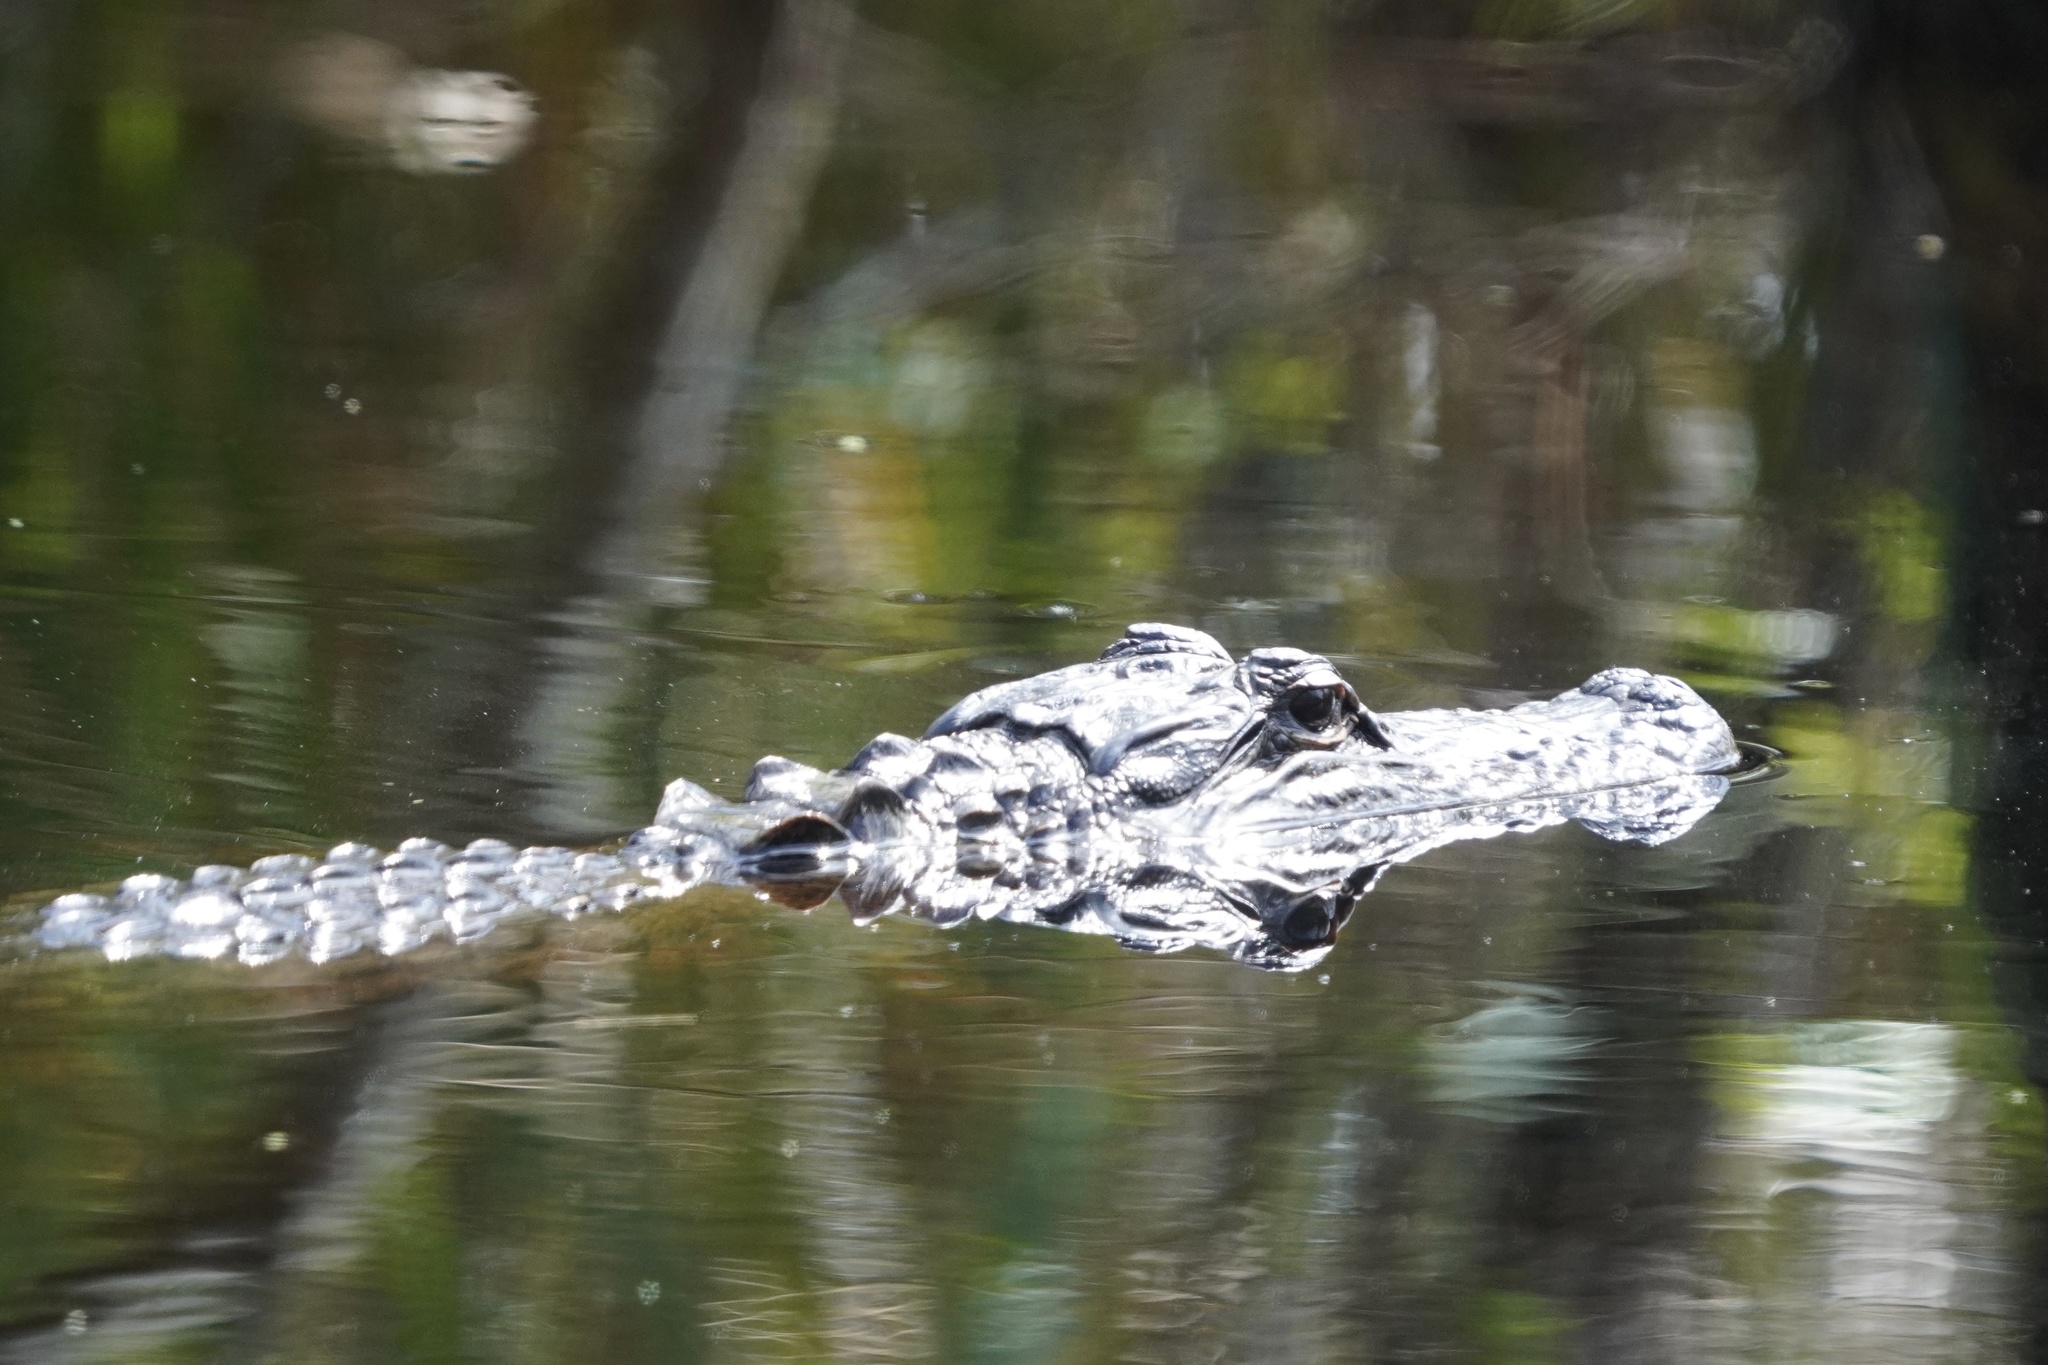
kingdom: Animalia
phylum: Chordata
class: Crocodylia
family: Alligatoridae
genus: Alligator
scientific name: Alligator mississippiensis
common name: American alligator
